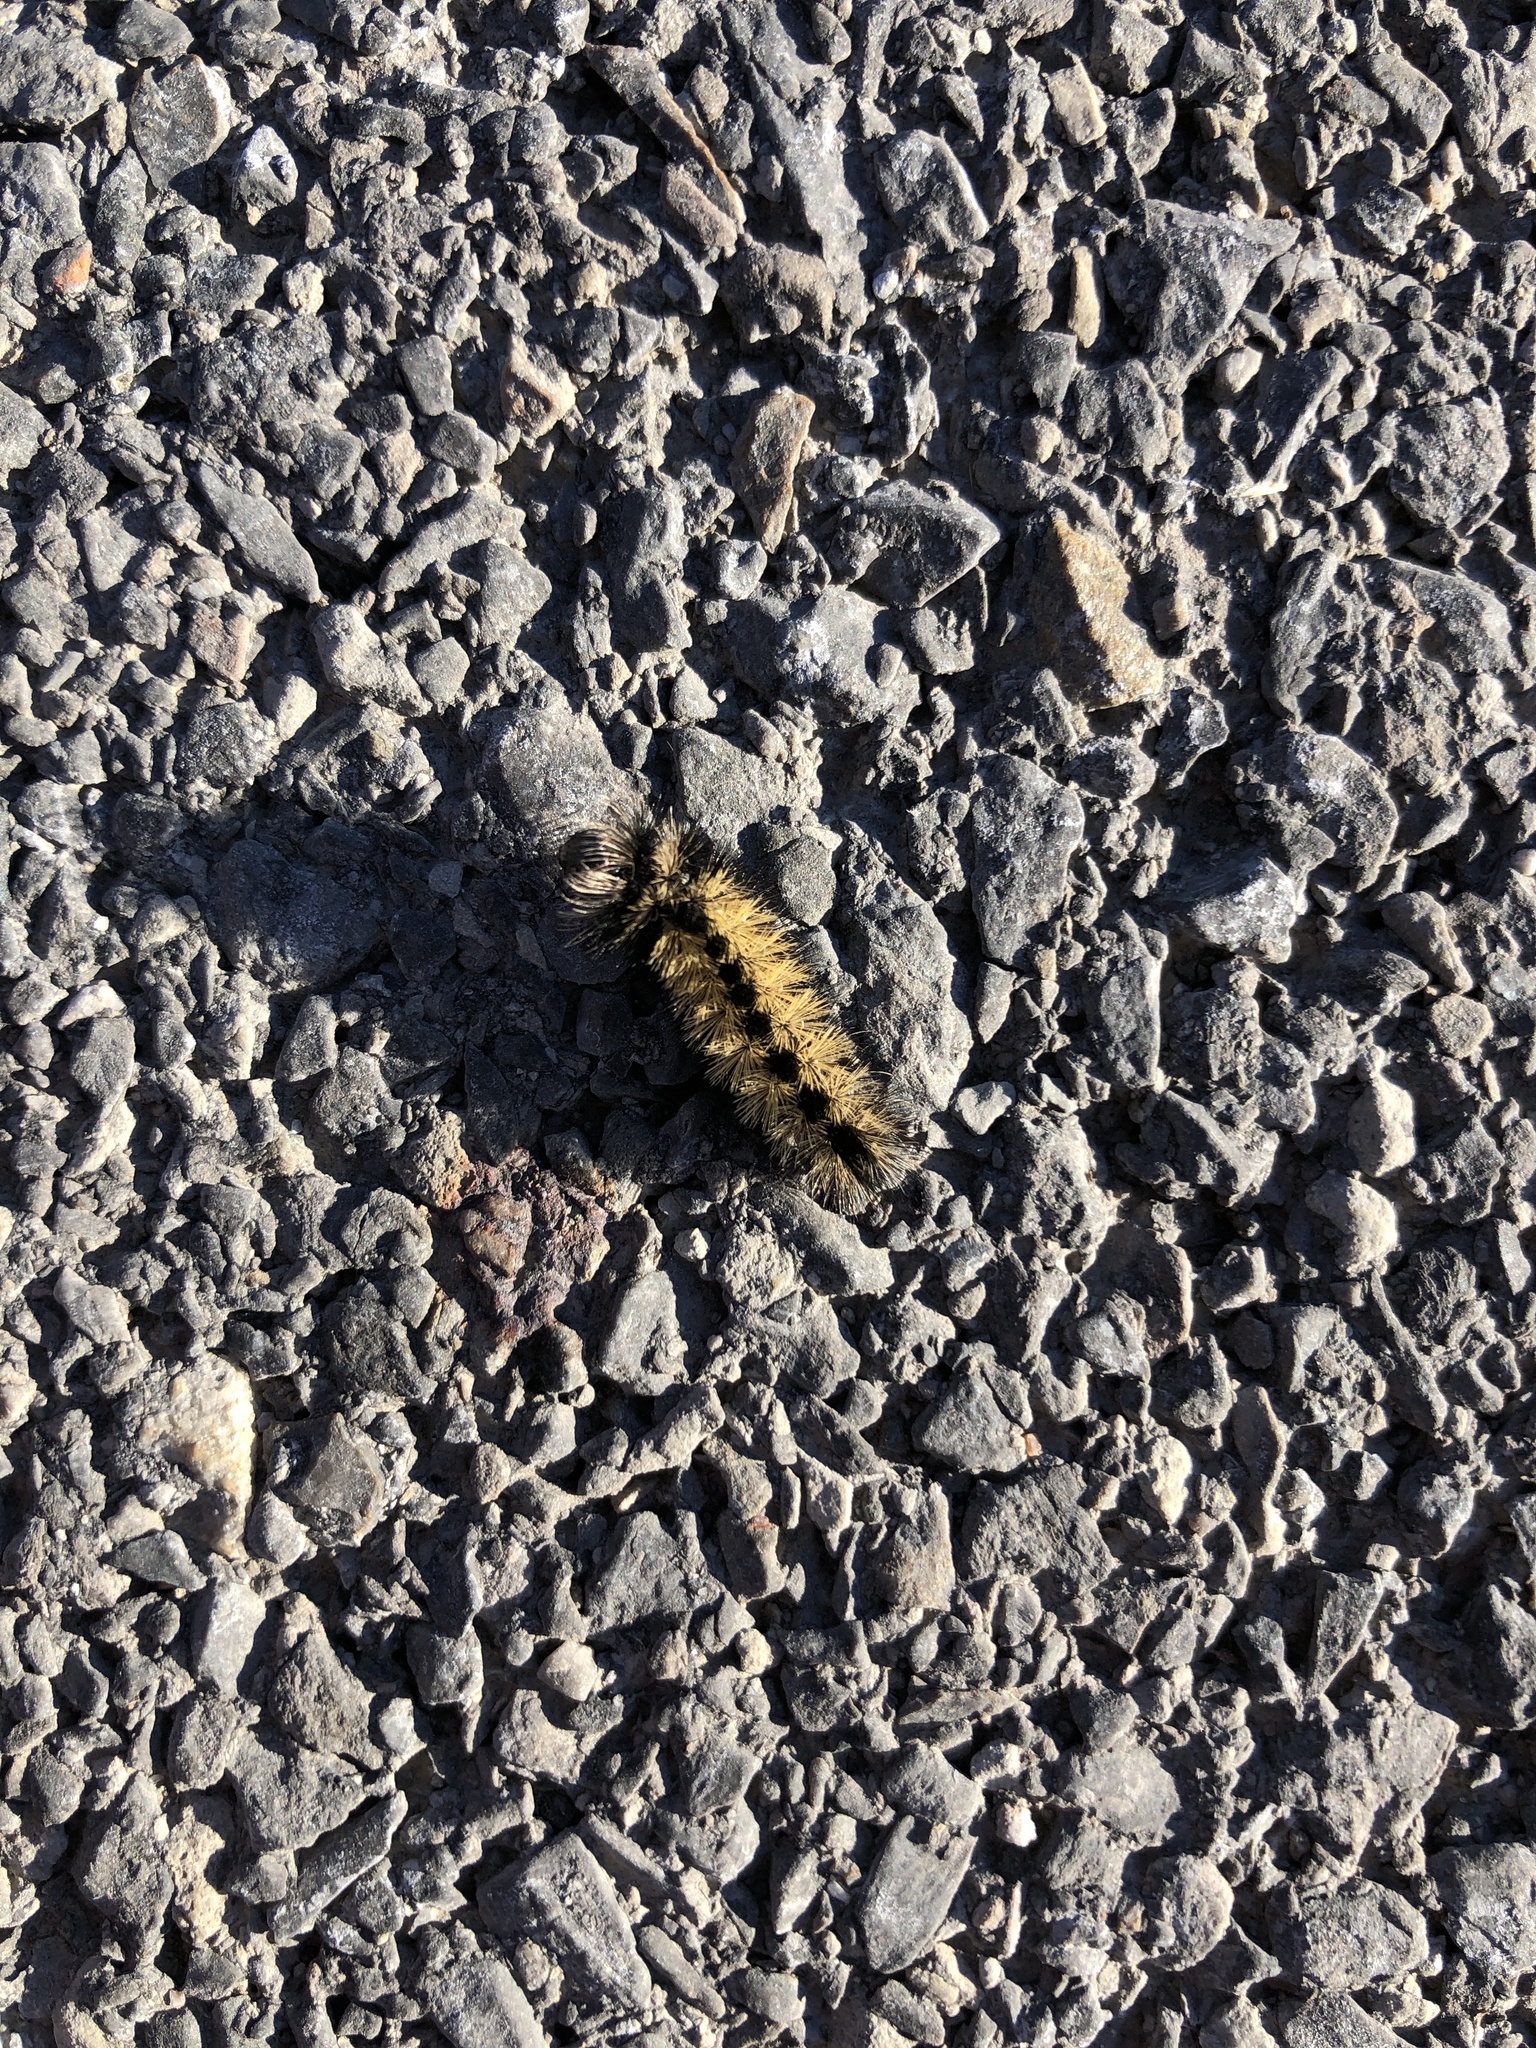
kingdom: Animalia
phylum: Arthropoda
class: Insecta
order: Lepidoptera
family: Erebidae
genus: Ctenucha
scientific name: Ctenucha virginica
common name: Virginia ctenucha moth
